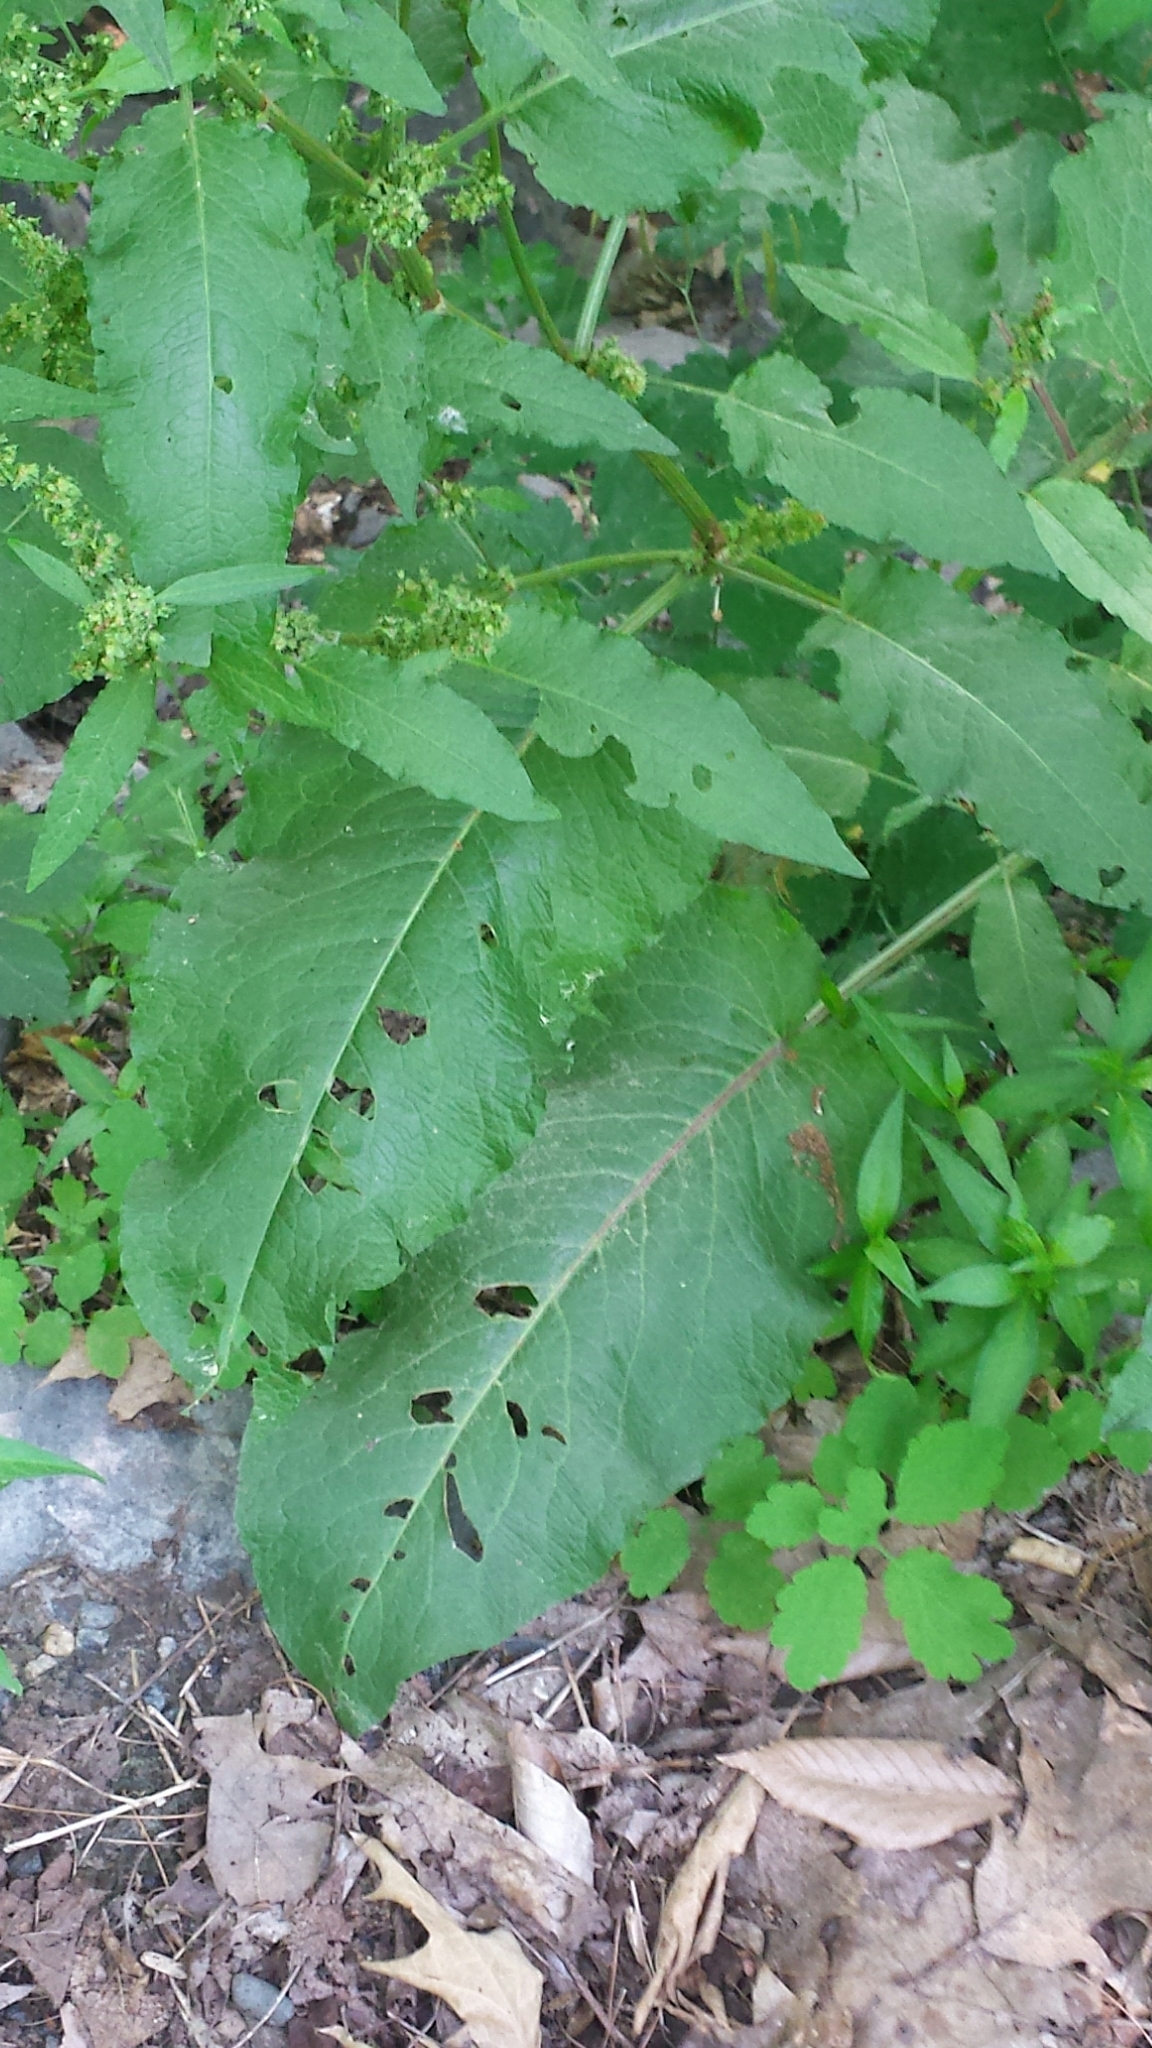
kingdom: Plantae
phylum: Tracheophyta
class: Magnoliopsida
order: Caryophyllales
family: Polygonaceae
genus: Rumex
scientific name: Rumex obtusifolius
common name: Bitter dock
